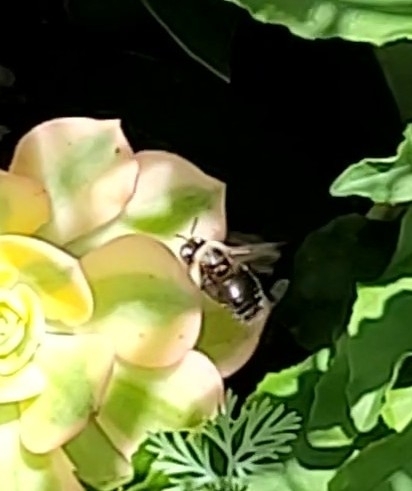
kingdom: Animalia
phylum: Arthropoda
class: Insecta
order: Hymenoptera
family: Apidae
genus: Xylocopa
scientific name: Xylocopa tabaniformis
